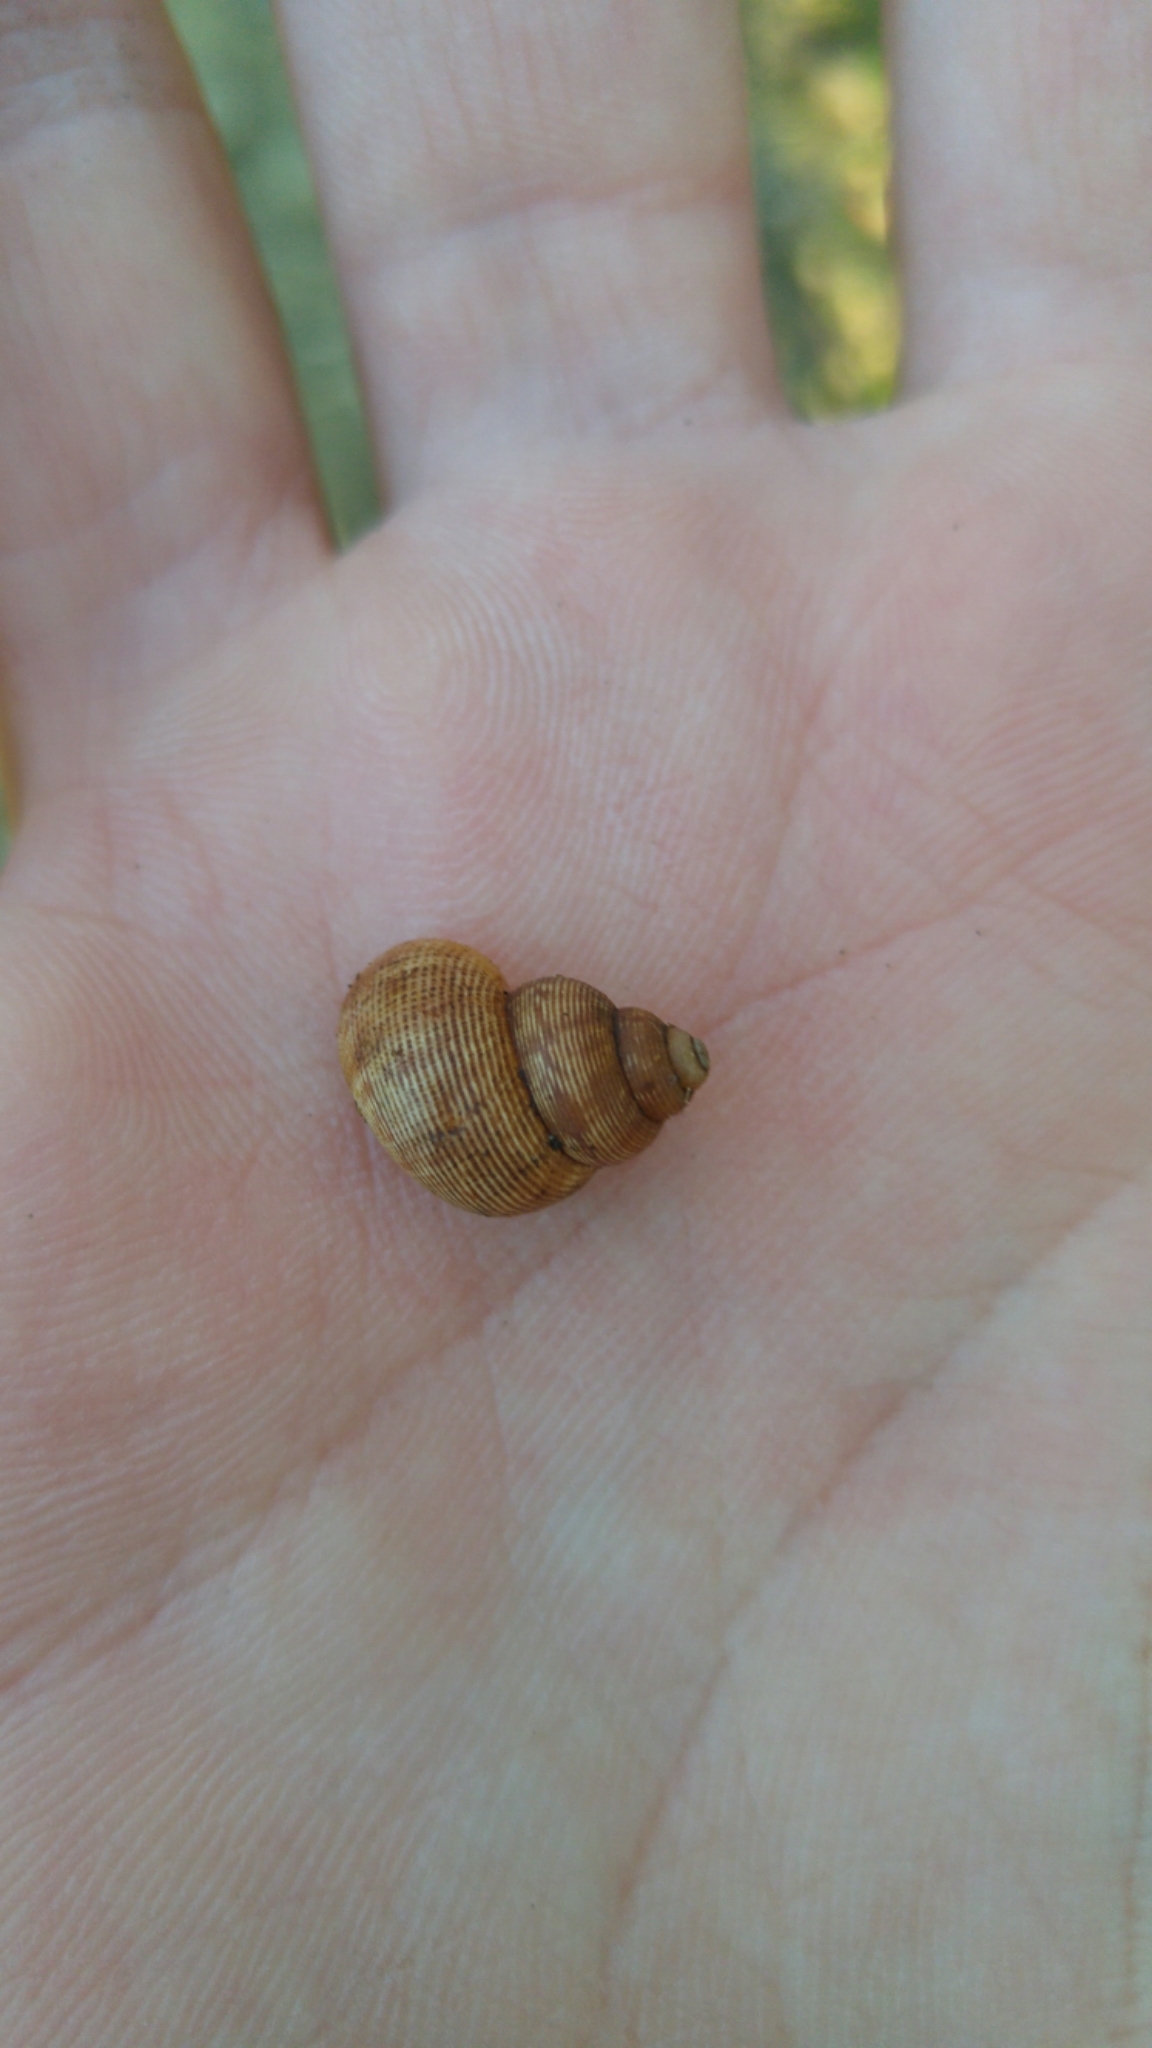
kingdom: Animalia
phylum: Mollusca
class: Gastropoda
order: Littorinimorpha
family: Pomatiidae
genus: Pomatias
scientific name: Pomatias elegans
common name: Red-mouthed snail
